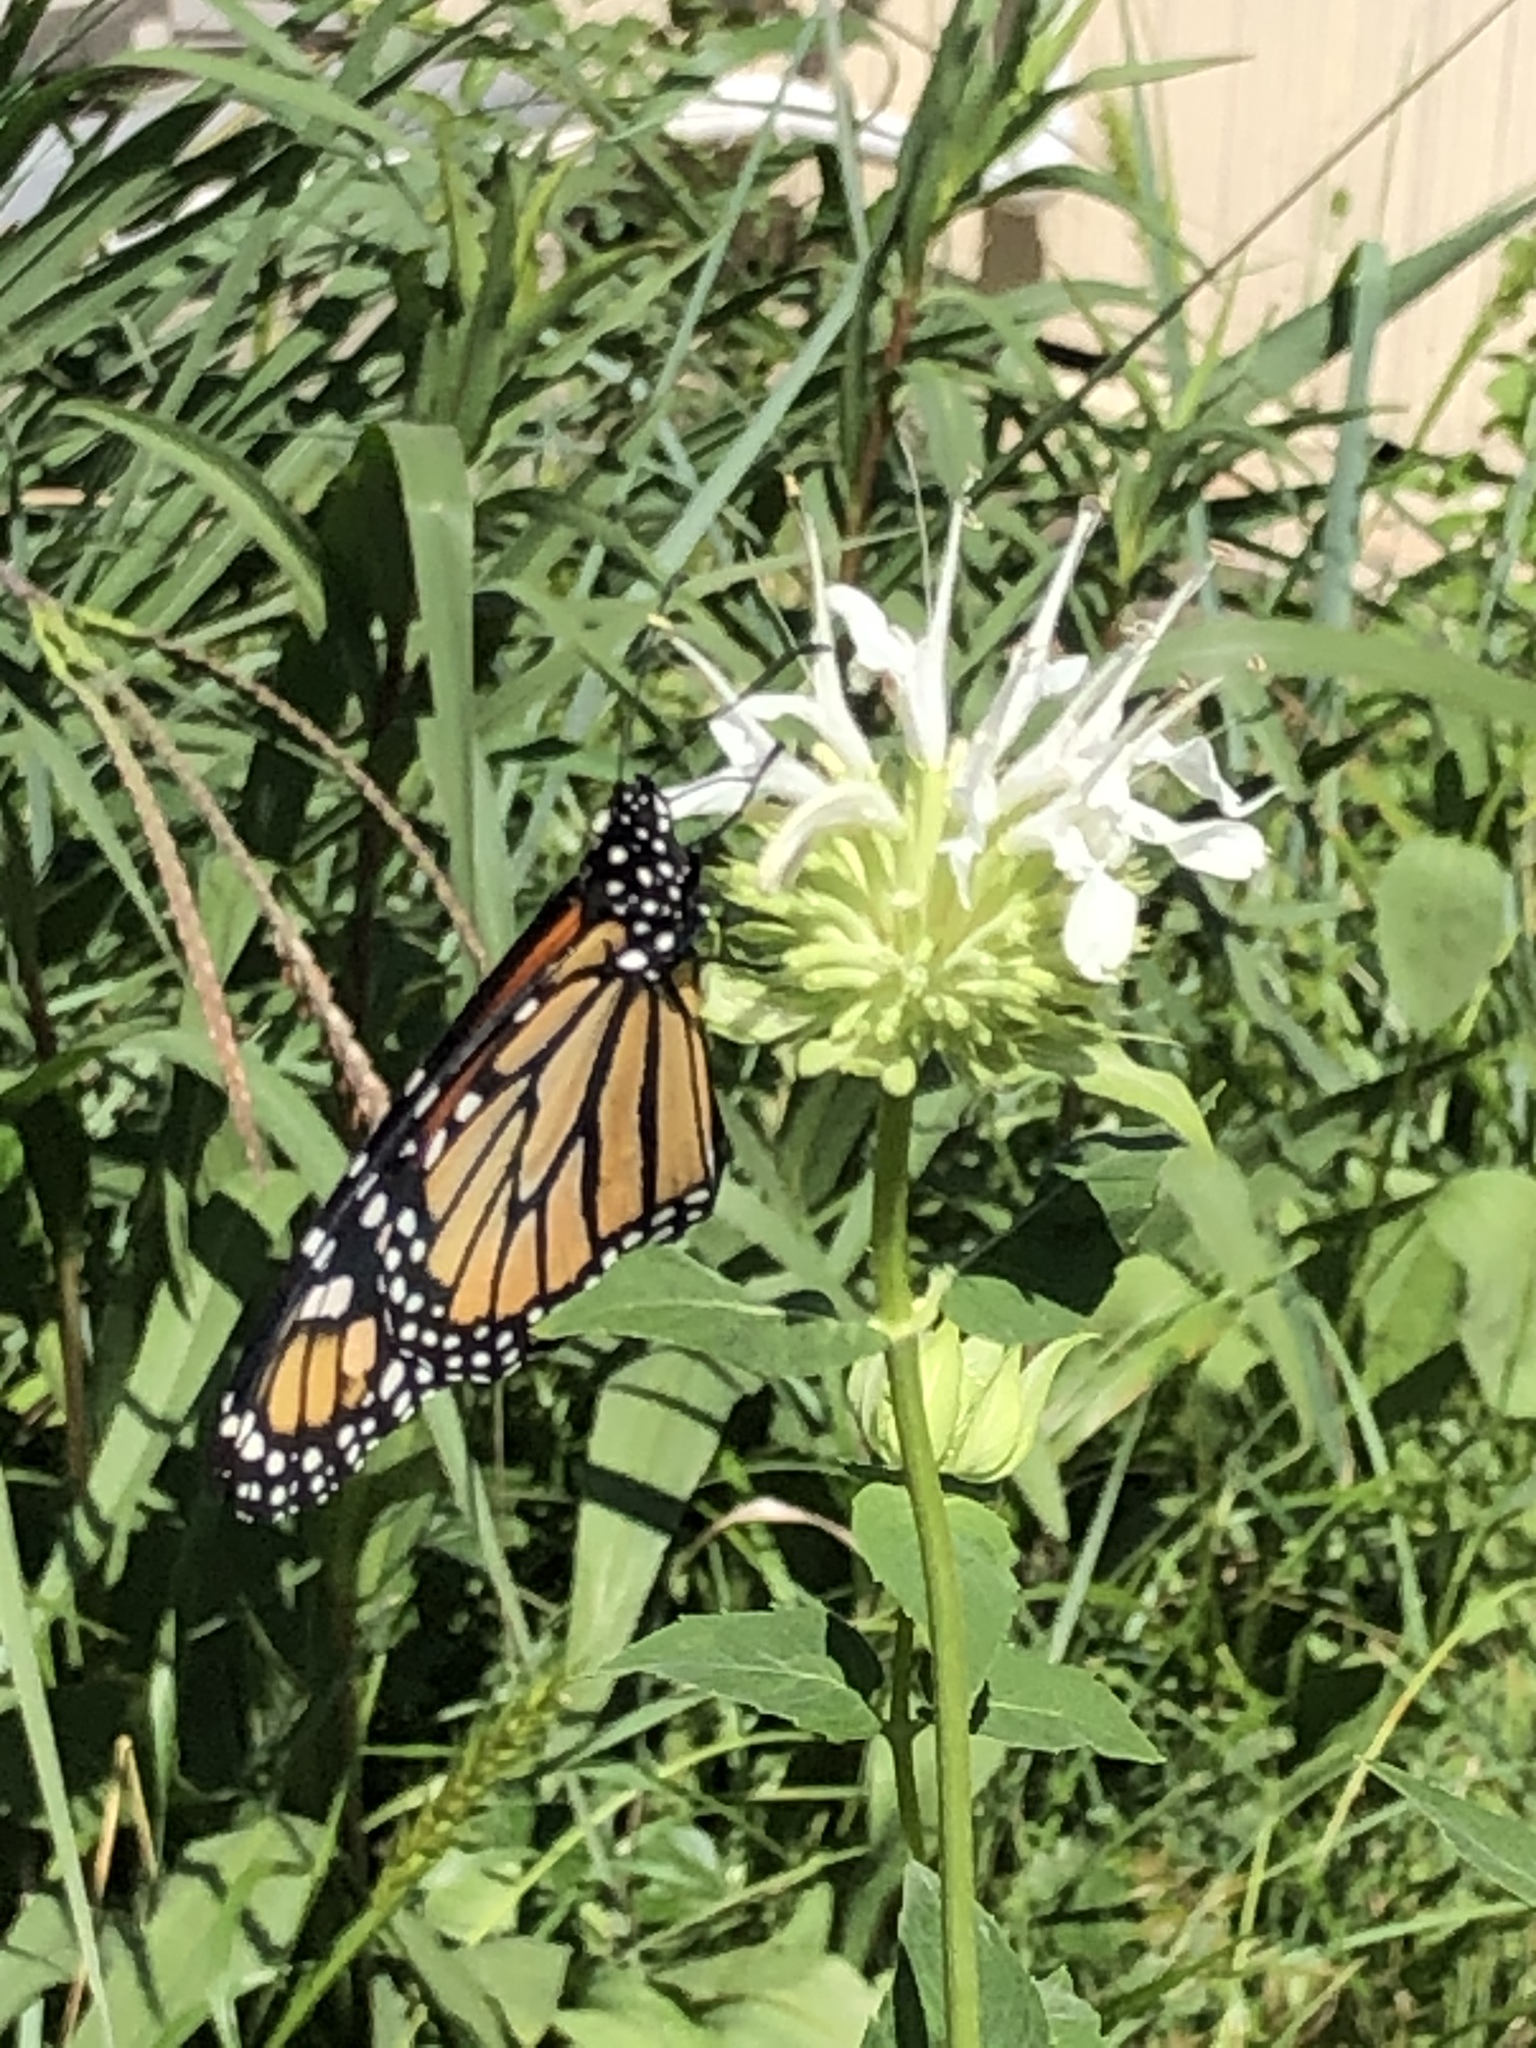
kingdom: Animalia
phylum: Arthropoda
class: Insecta
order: Lepidoptera
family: Nymphalidae
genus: Danaus
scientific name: Danaus plexippus
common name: Monarch
